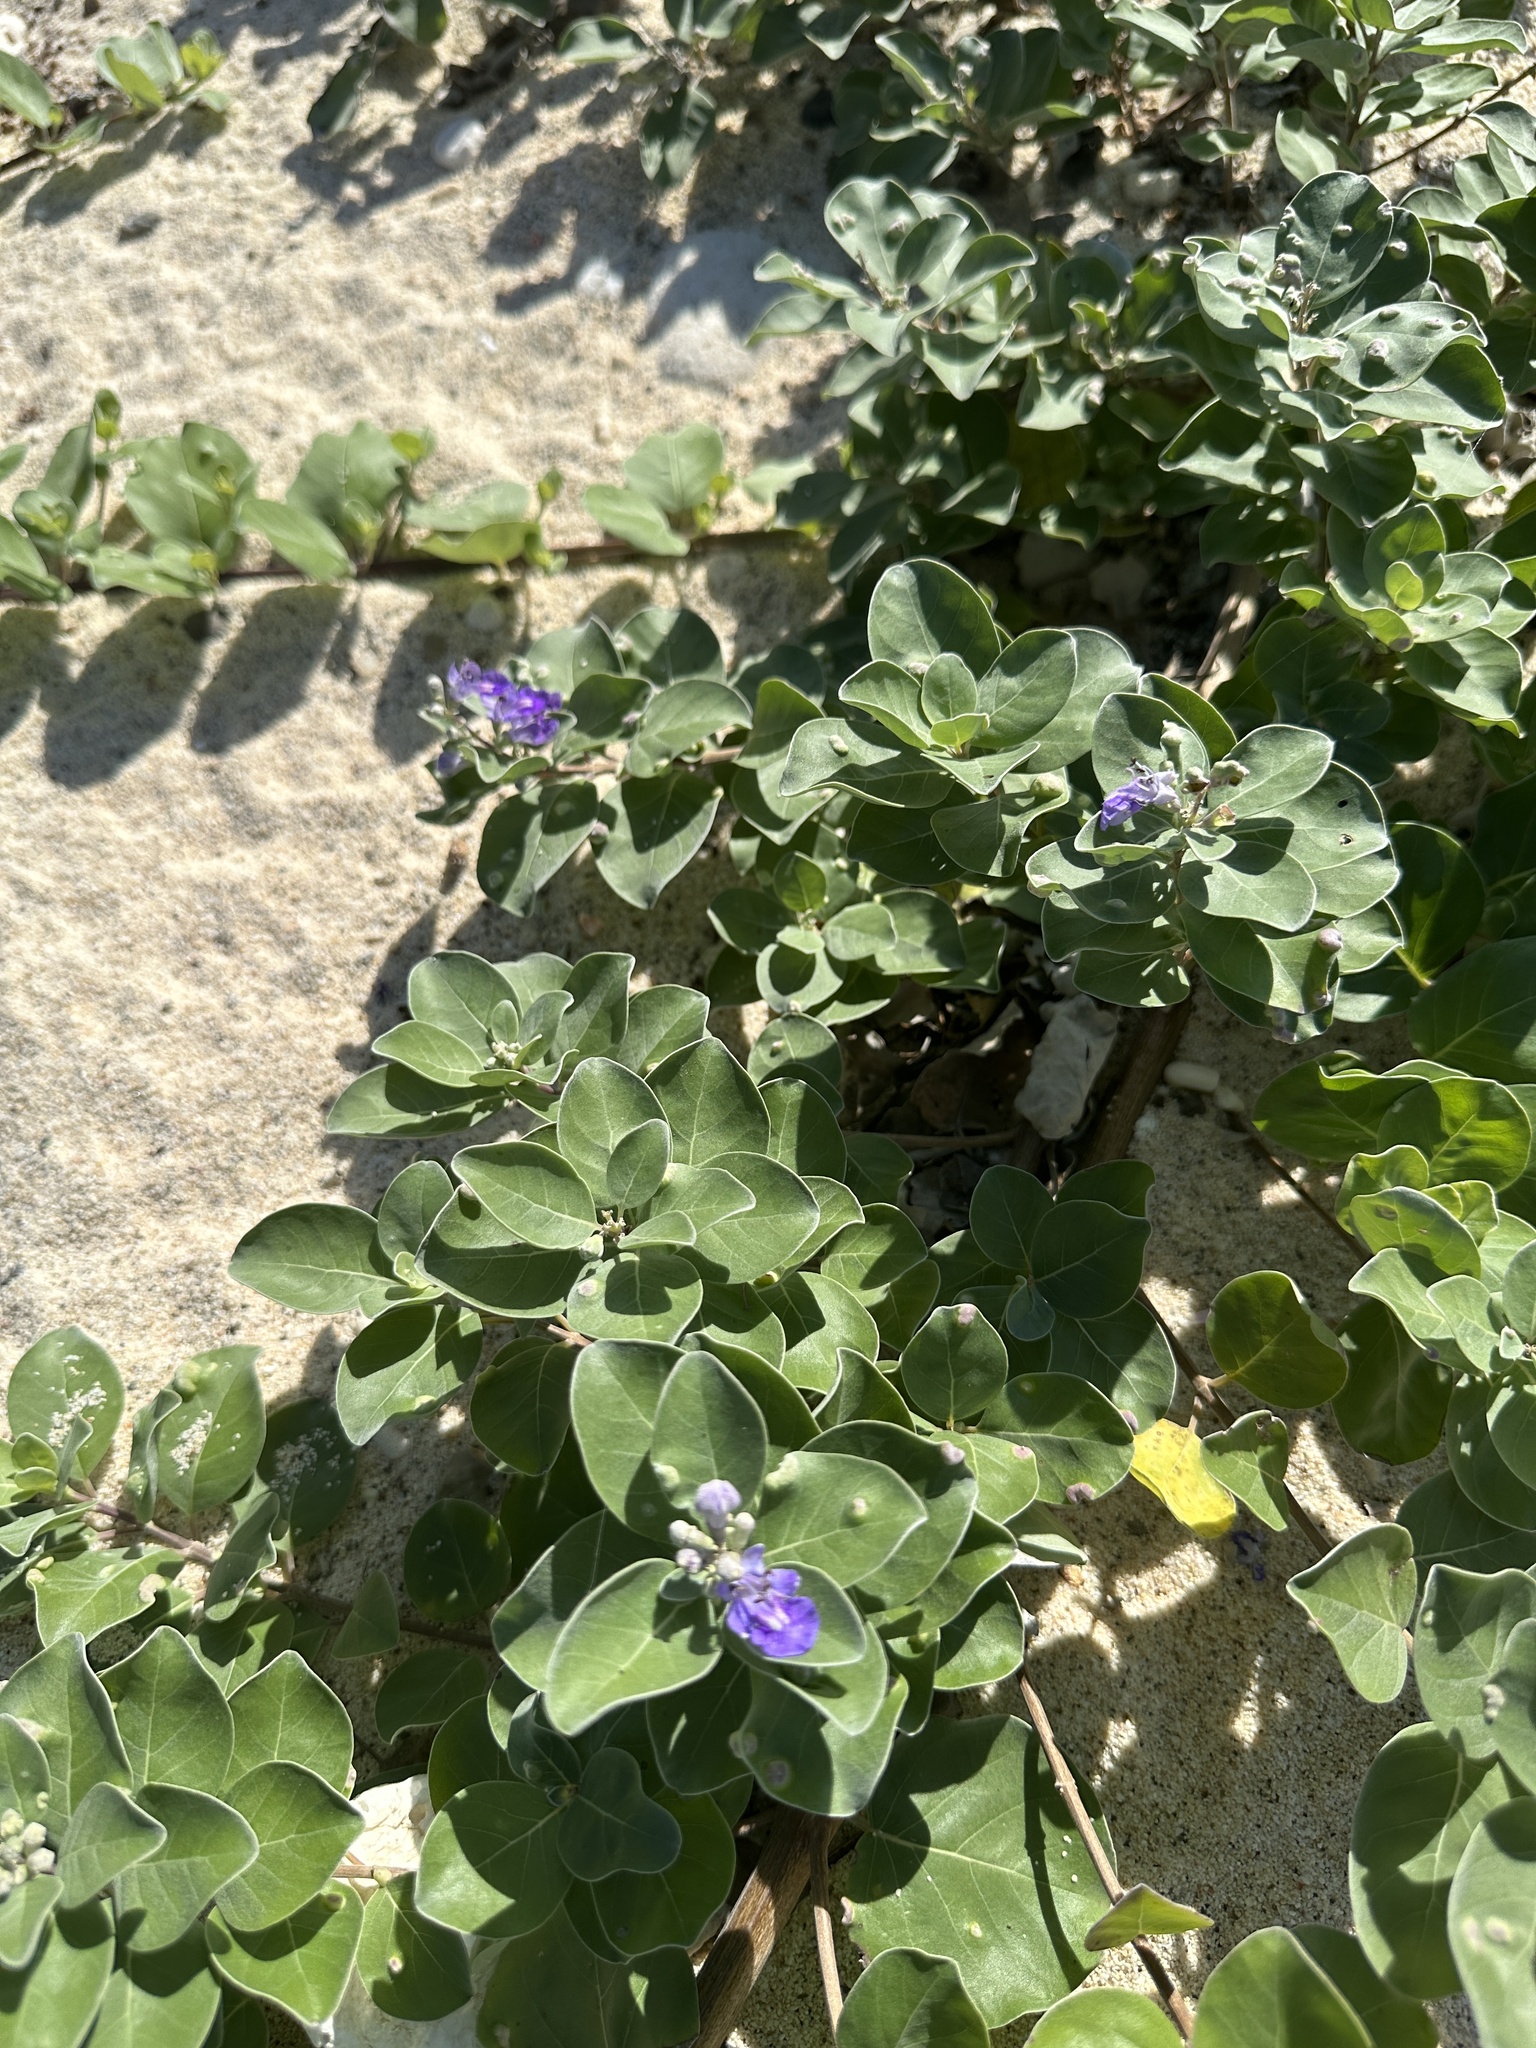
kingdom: Plantae
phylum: Tracheophyta
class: Magnoliopsida
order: Lamiales
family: Lamiaceae
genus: Vitex
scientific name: Vitex rotundifolia
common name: Beach vitex
